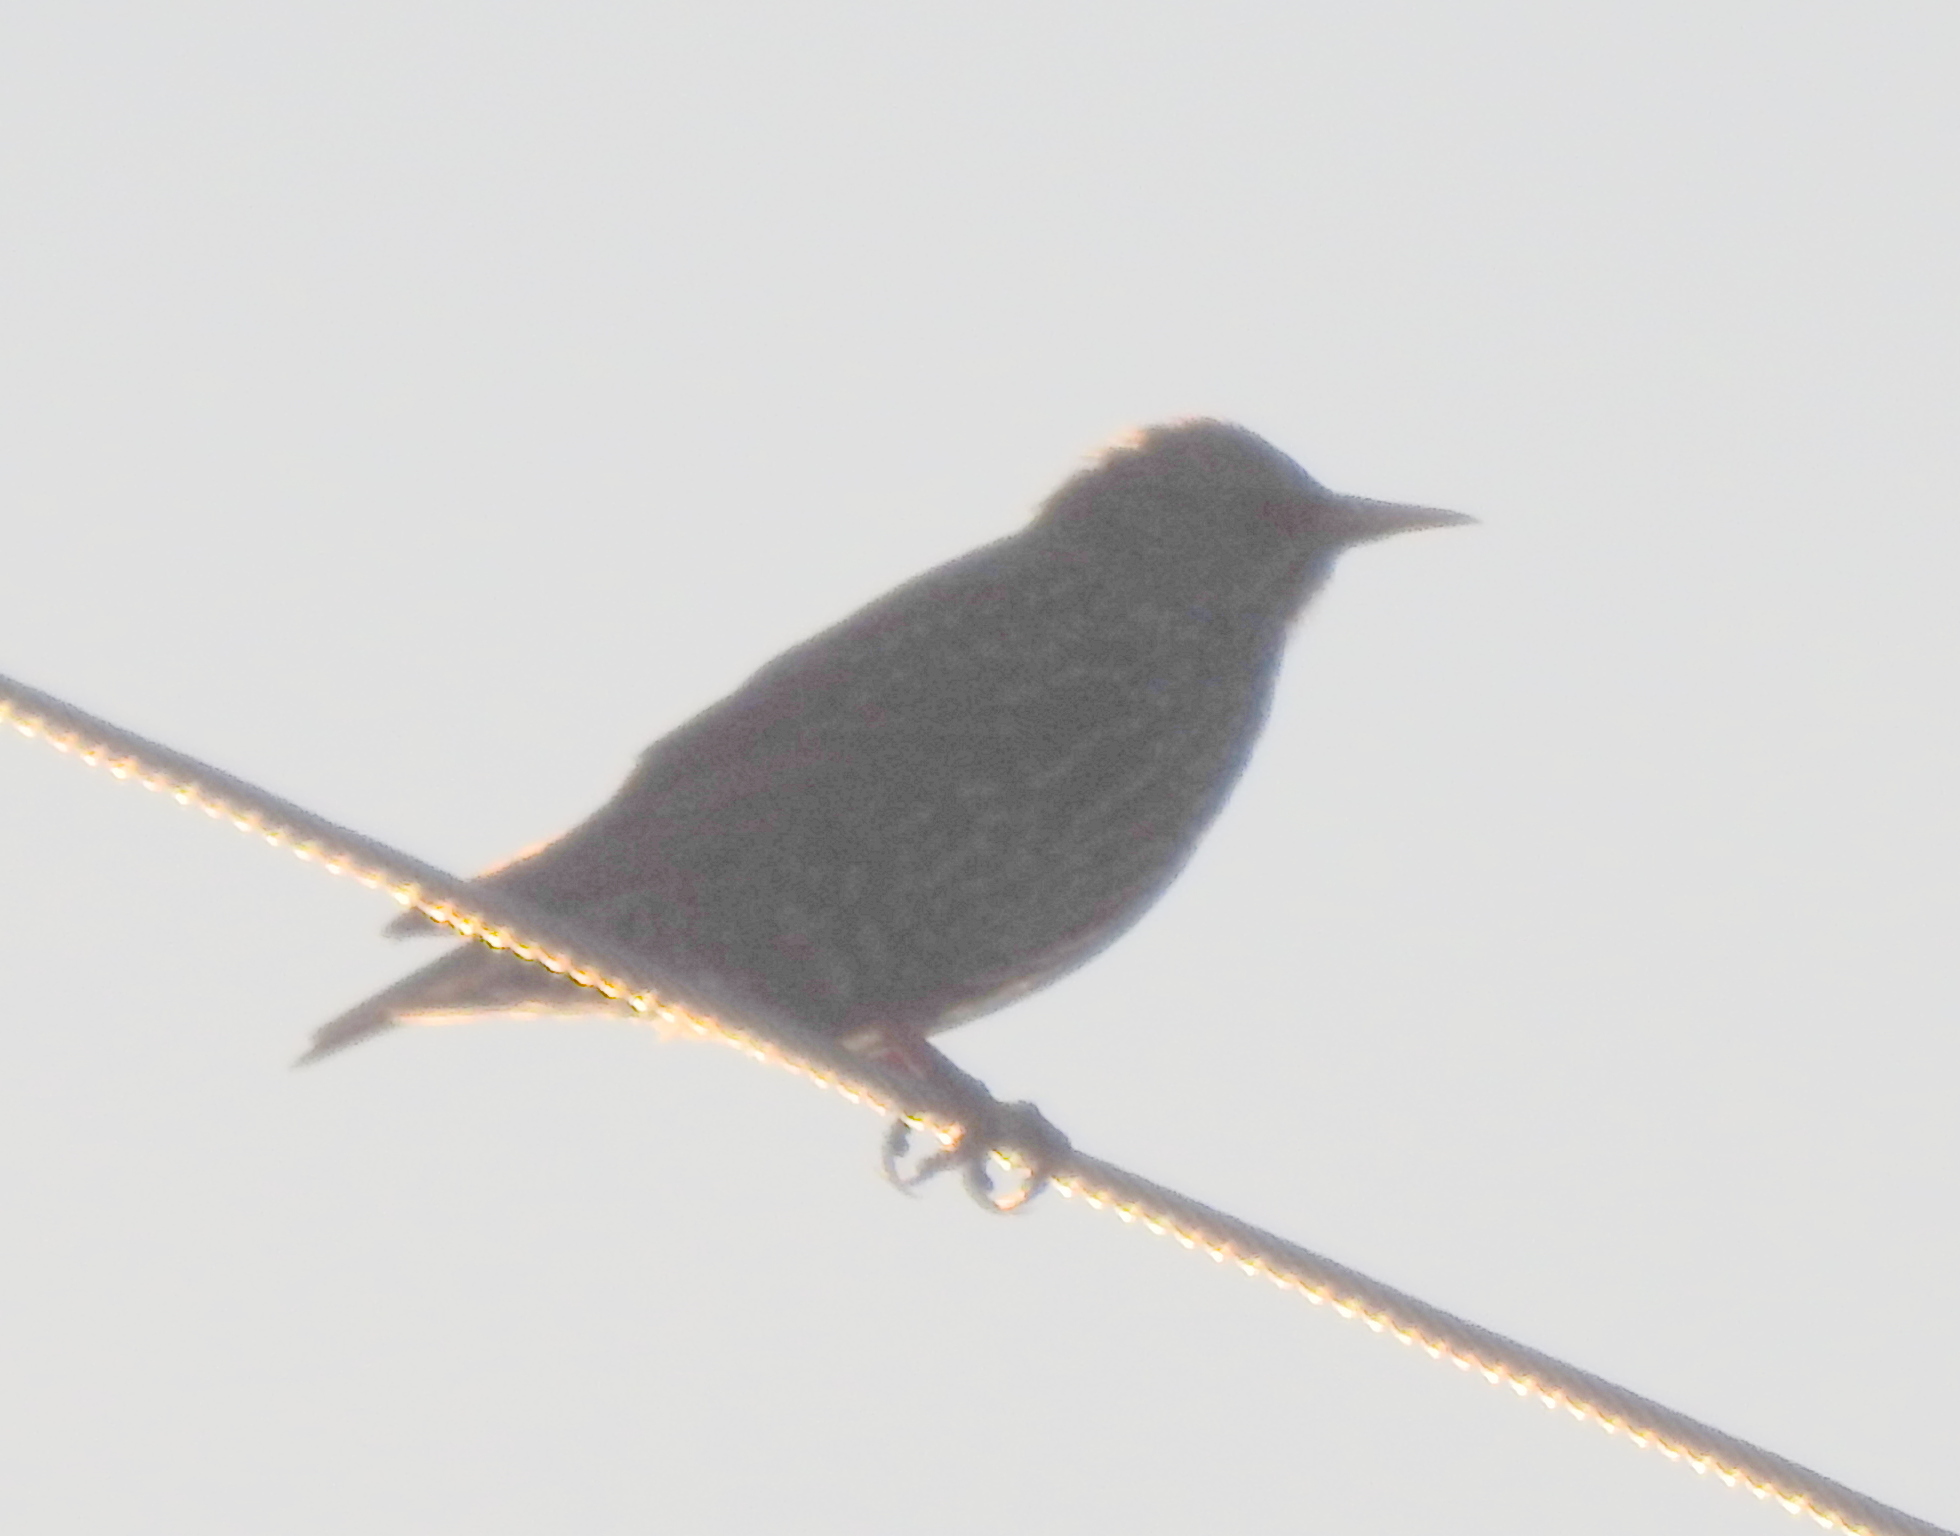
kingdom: Animalia
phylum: Chordata
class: Aves
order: Passeriformes
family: Sturnidae
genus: Sturnus
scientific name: Sturnus vulgaris
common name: Common starling
